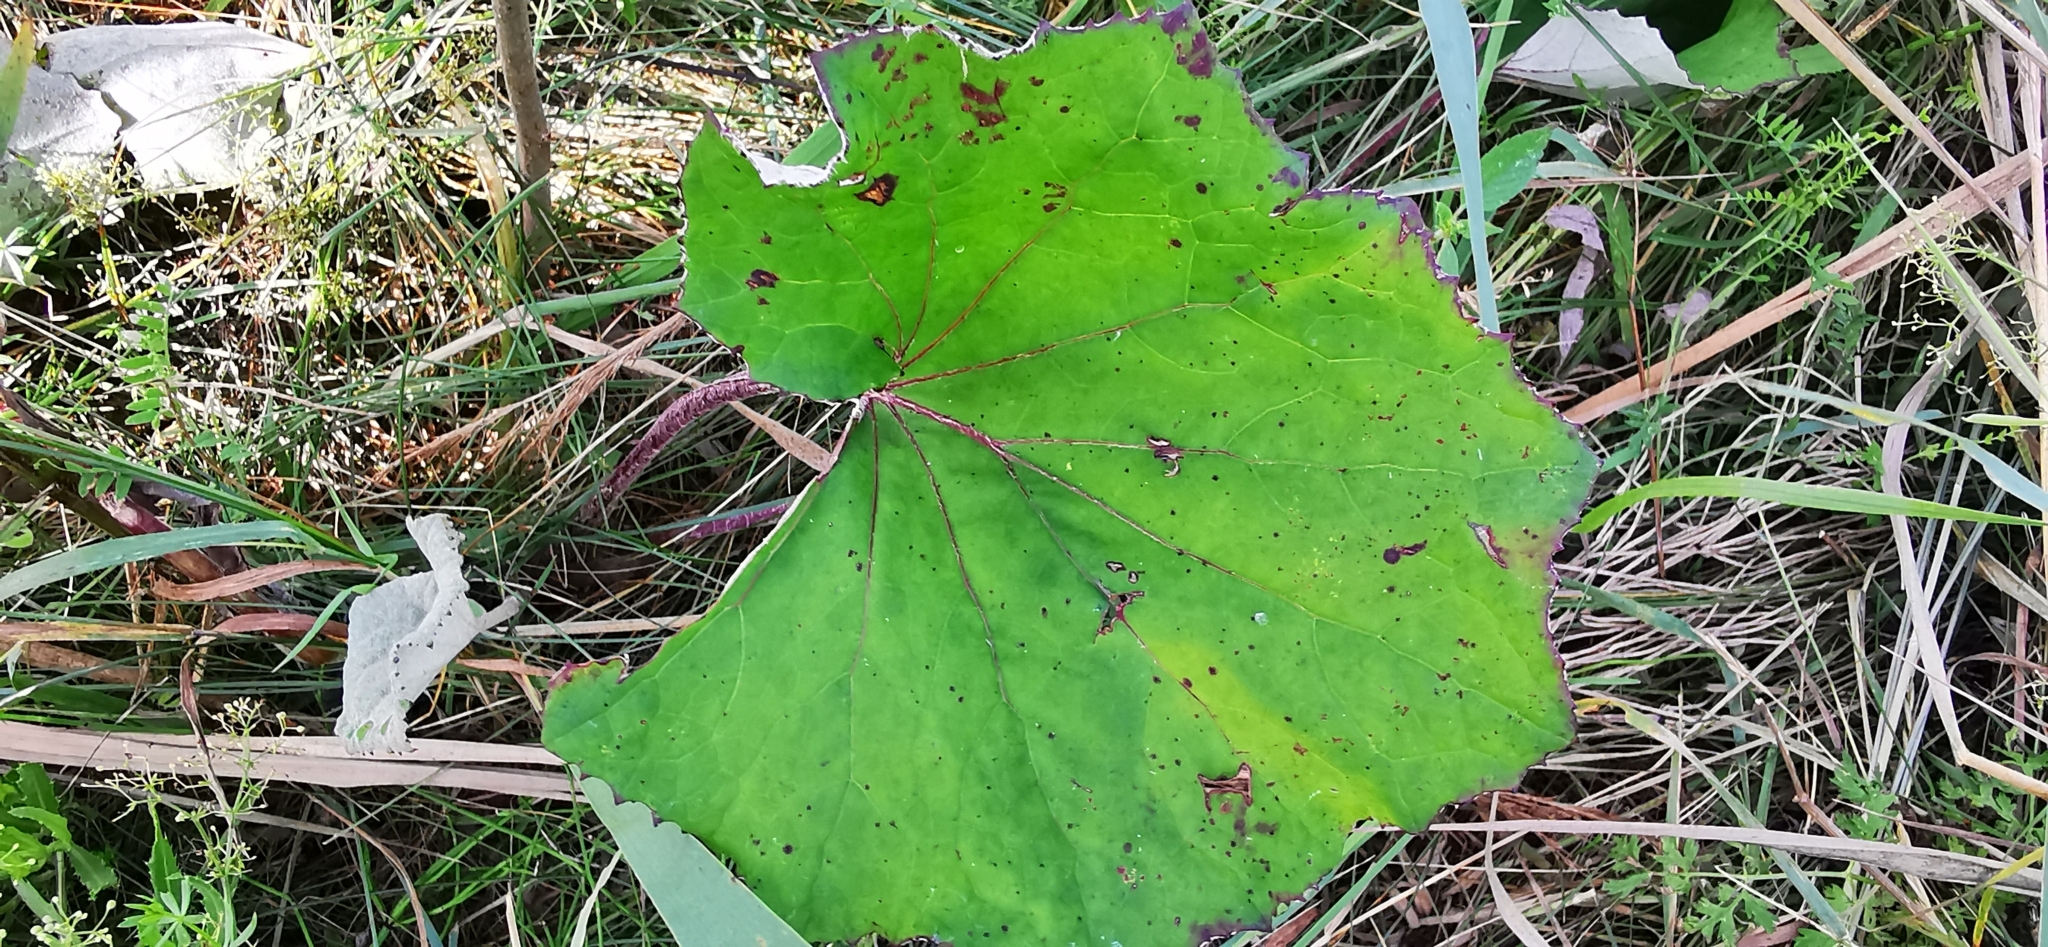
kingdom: Plantae
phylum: Tracheophyta
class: Magnoliopsida
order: Asterales
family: Asteraceae
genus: Tussilago
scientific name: Tussilago farfara
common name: Coltsfoot
